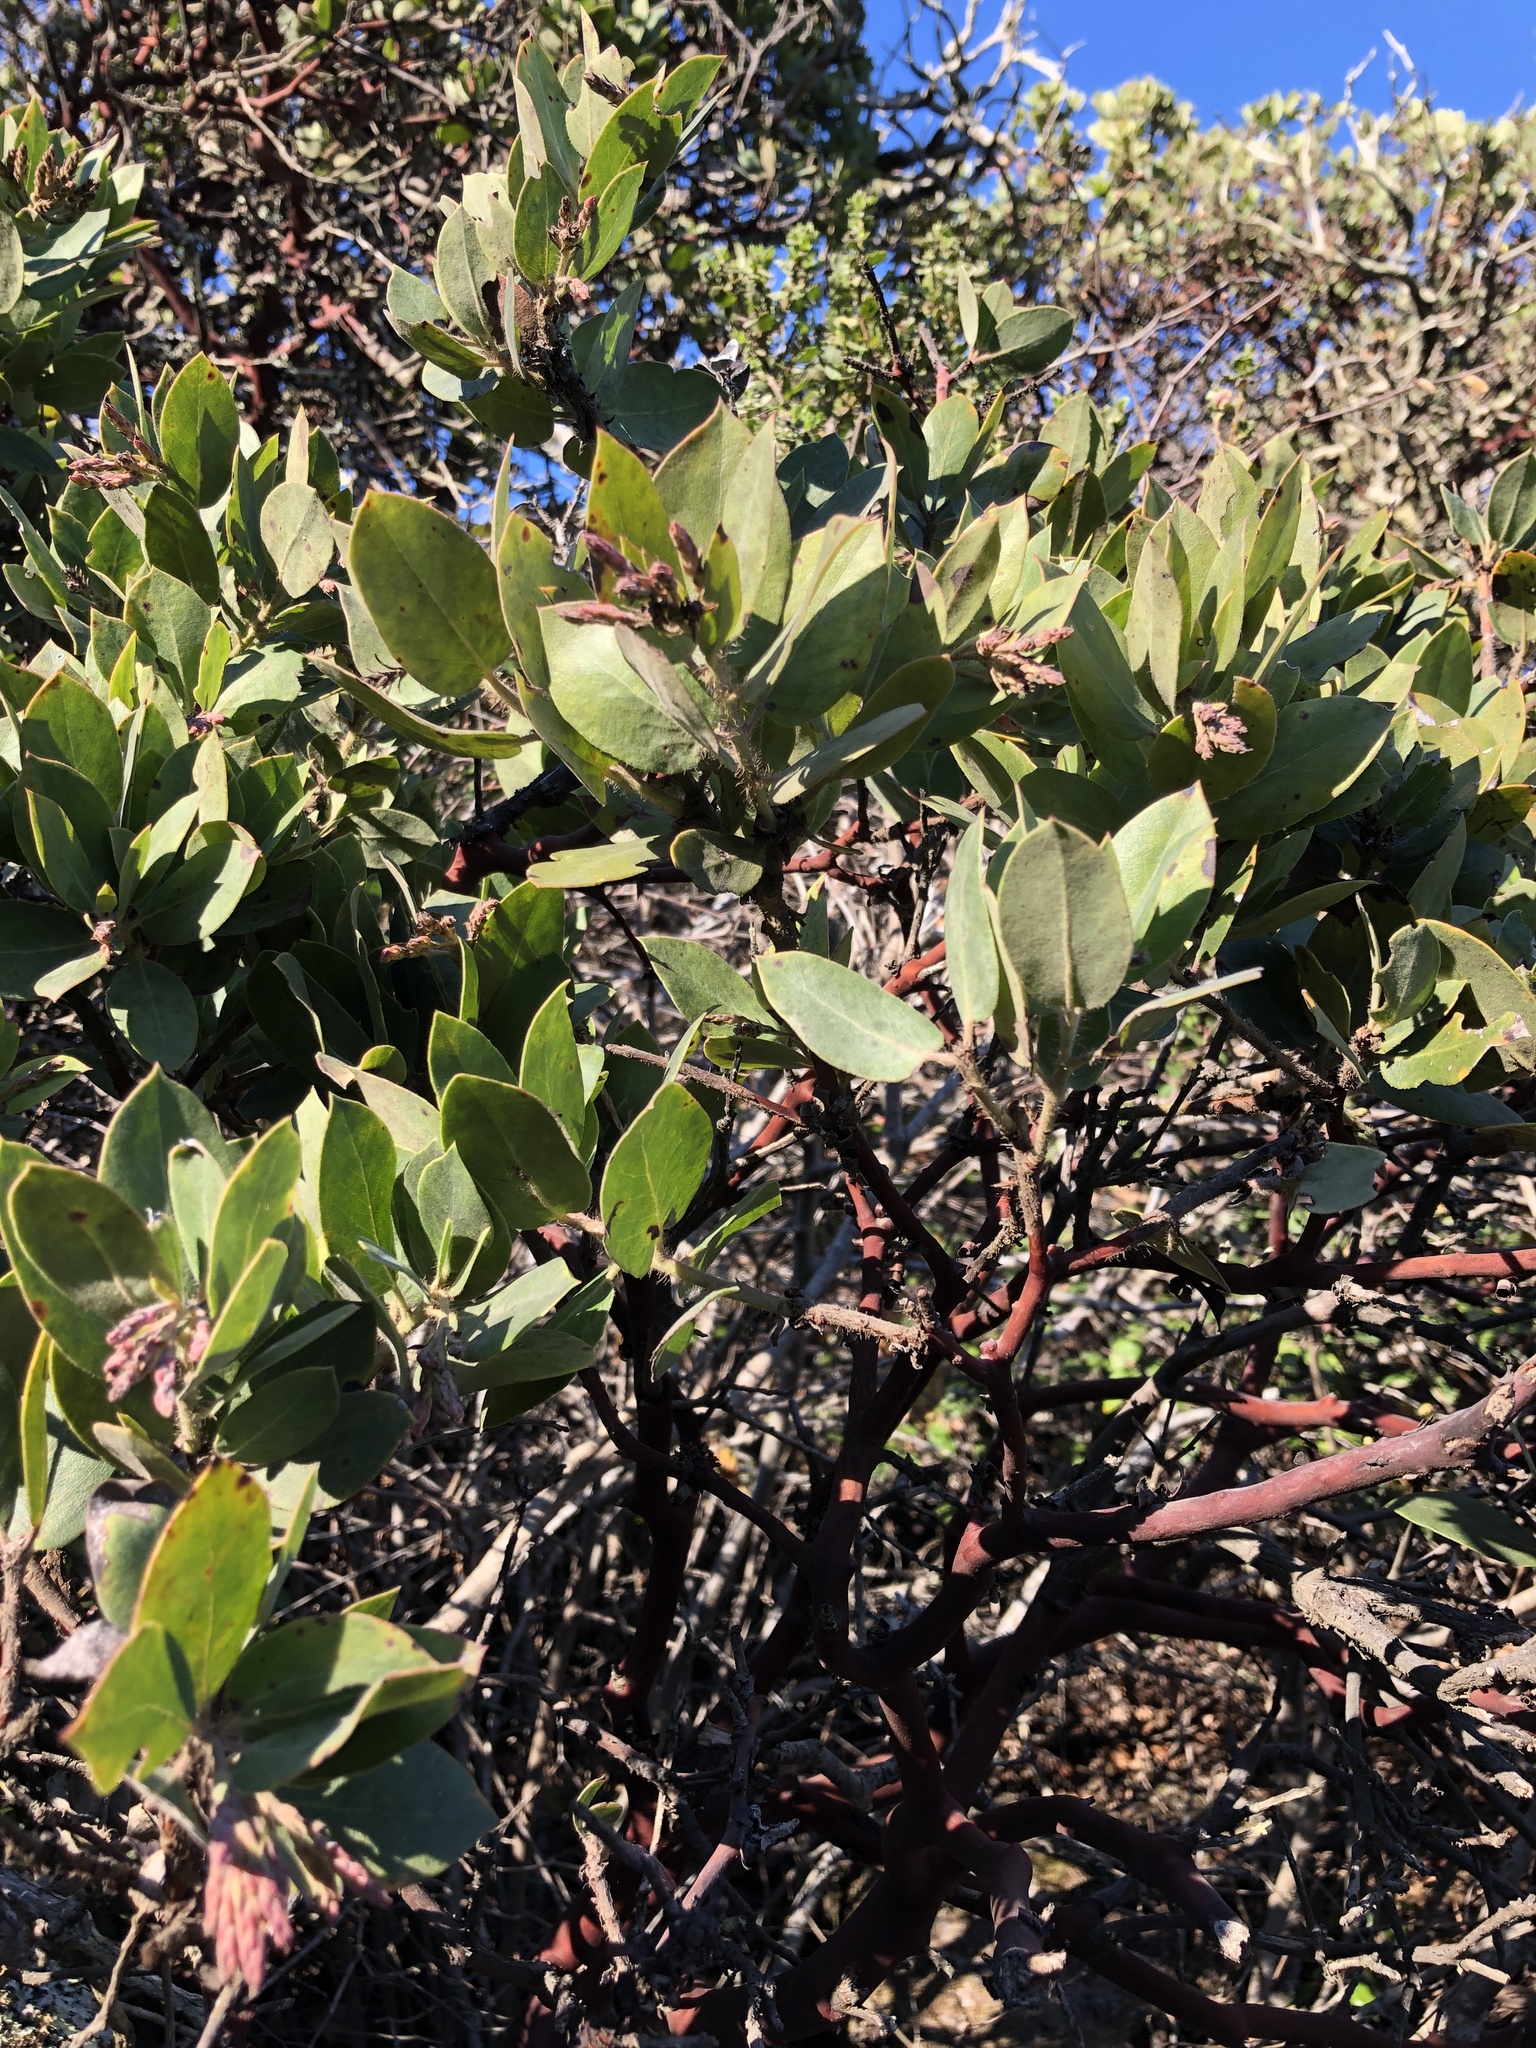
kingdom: Plantae
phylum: Tracheophyta
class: Magnoliopsida
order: Ericales
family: Ericaceae
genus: Arctostaphylos
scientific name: Arctostaphylos crustacea
